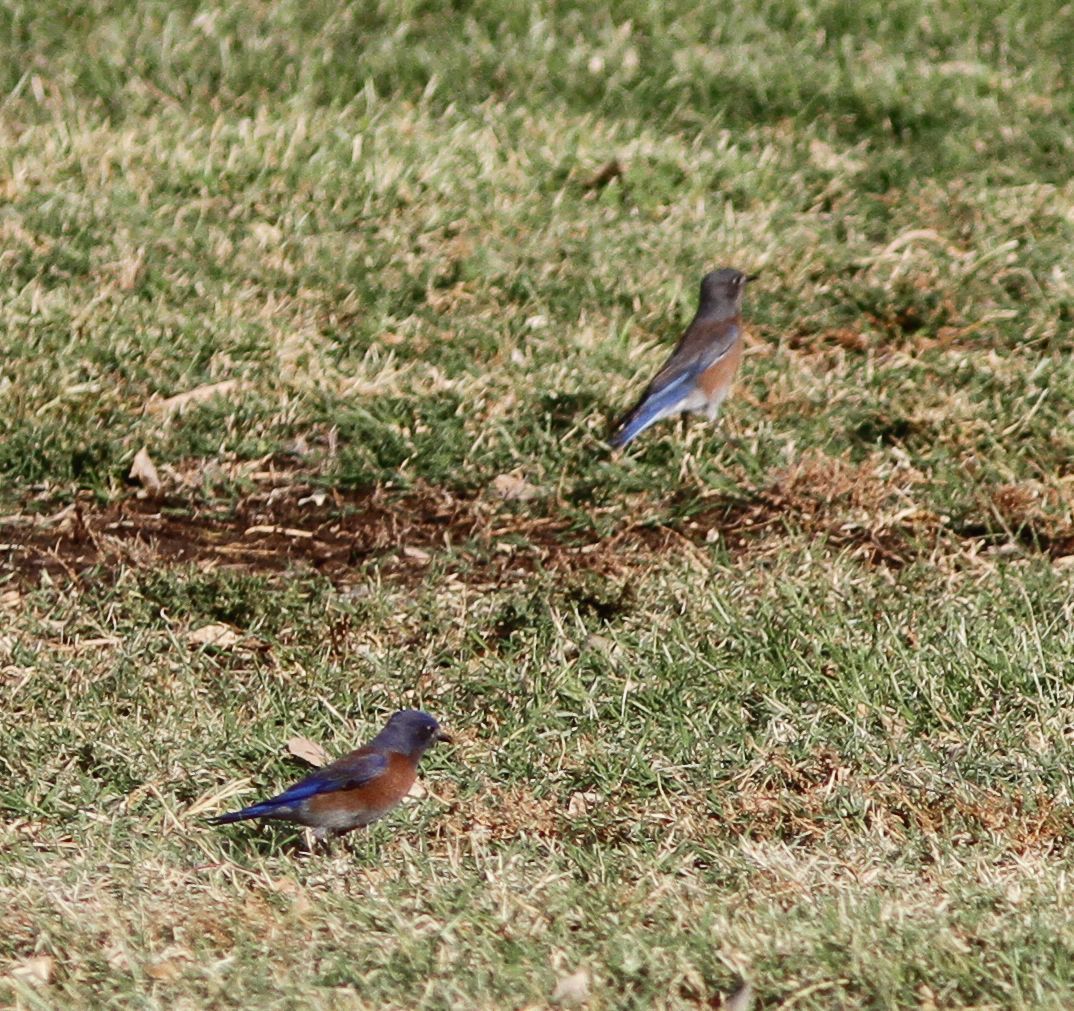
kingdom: Animalia
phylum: Chordata
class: Aves
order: Passeriformes
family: Turdidae
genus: Sialia
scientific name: Sialia mexicana
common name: Western bluebird
